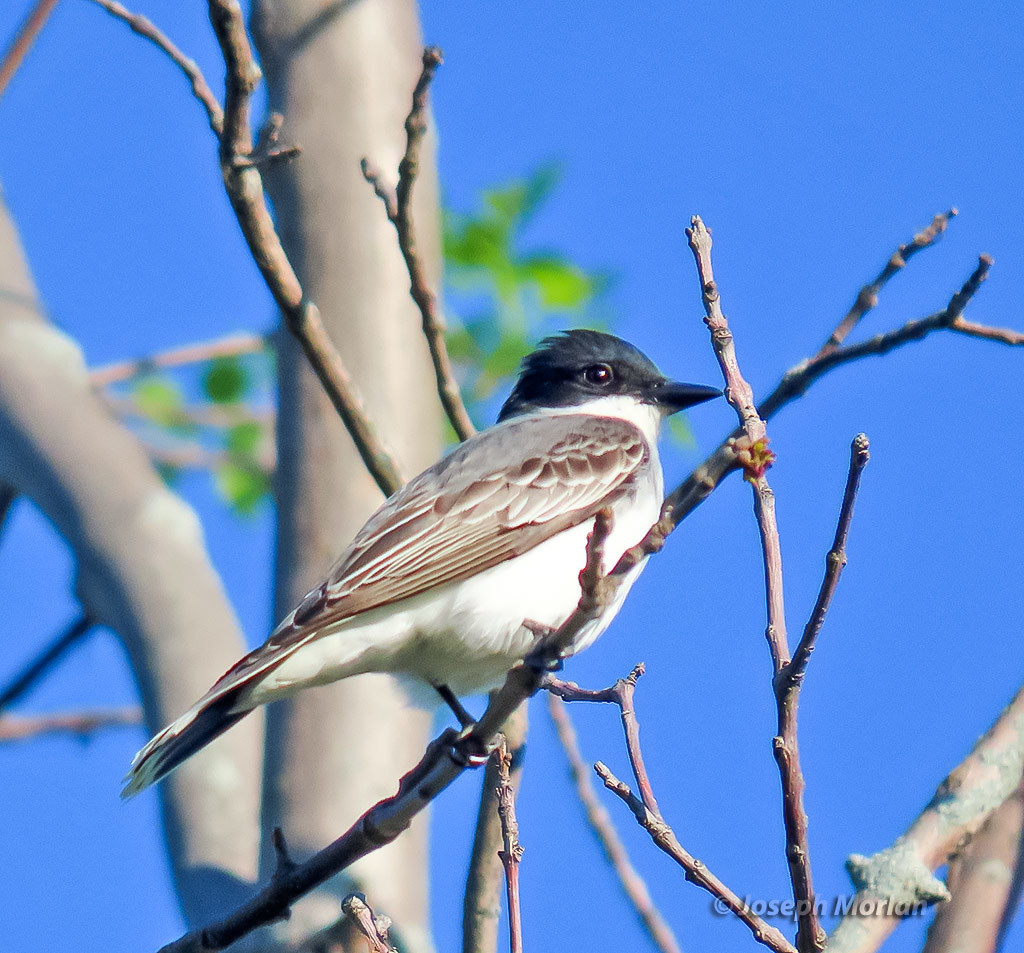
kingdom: Animalia
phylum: Chordata
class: Aves
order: Passeriformes
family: Tyrannidae
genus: Tyrannus
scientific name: Tyrannus tyrannus
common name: Eastern kingbird
